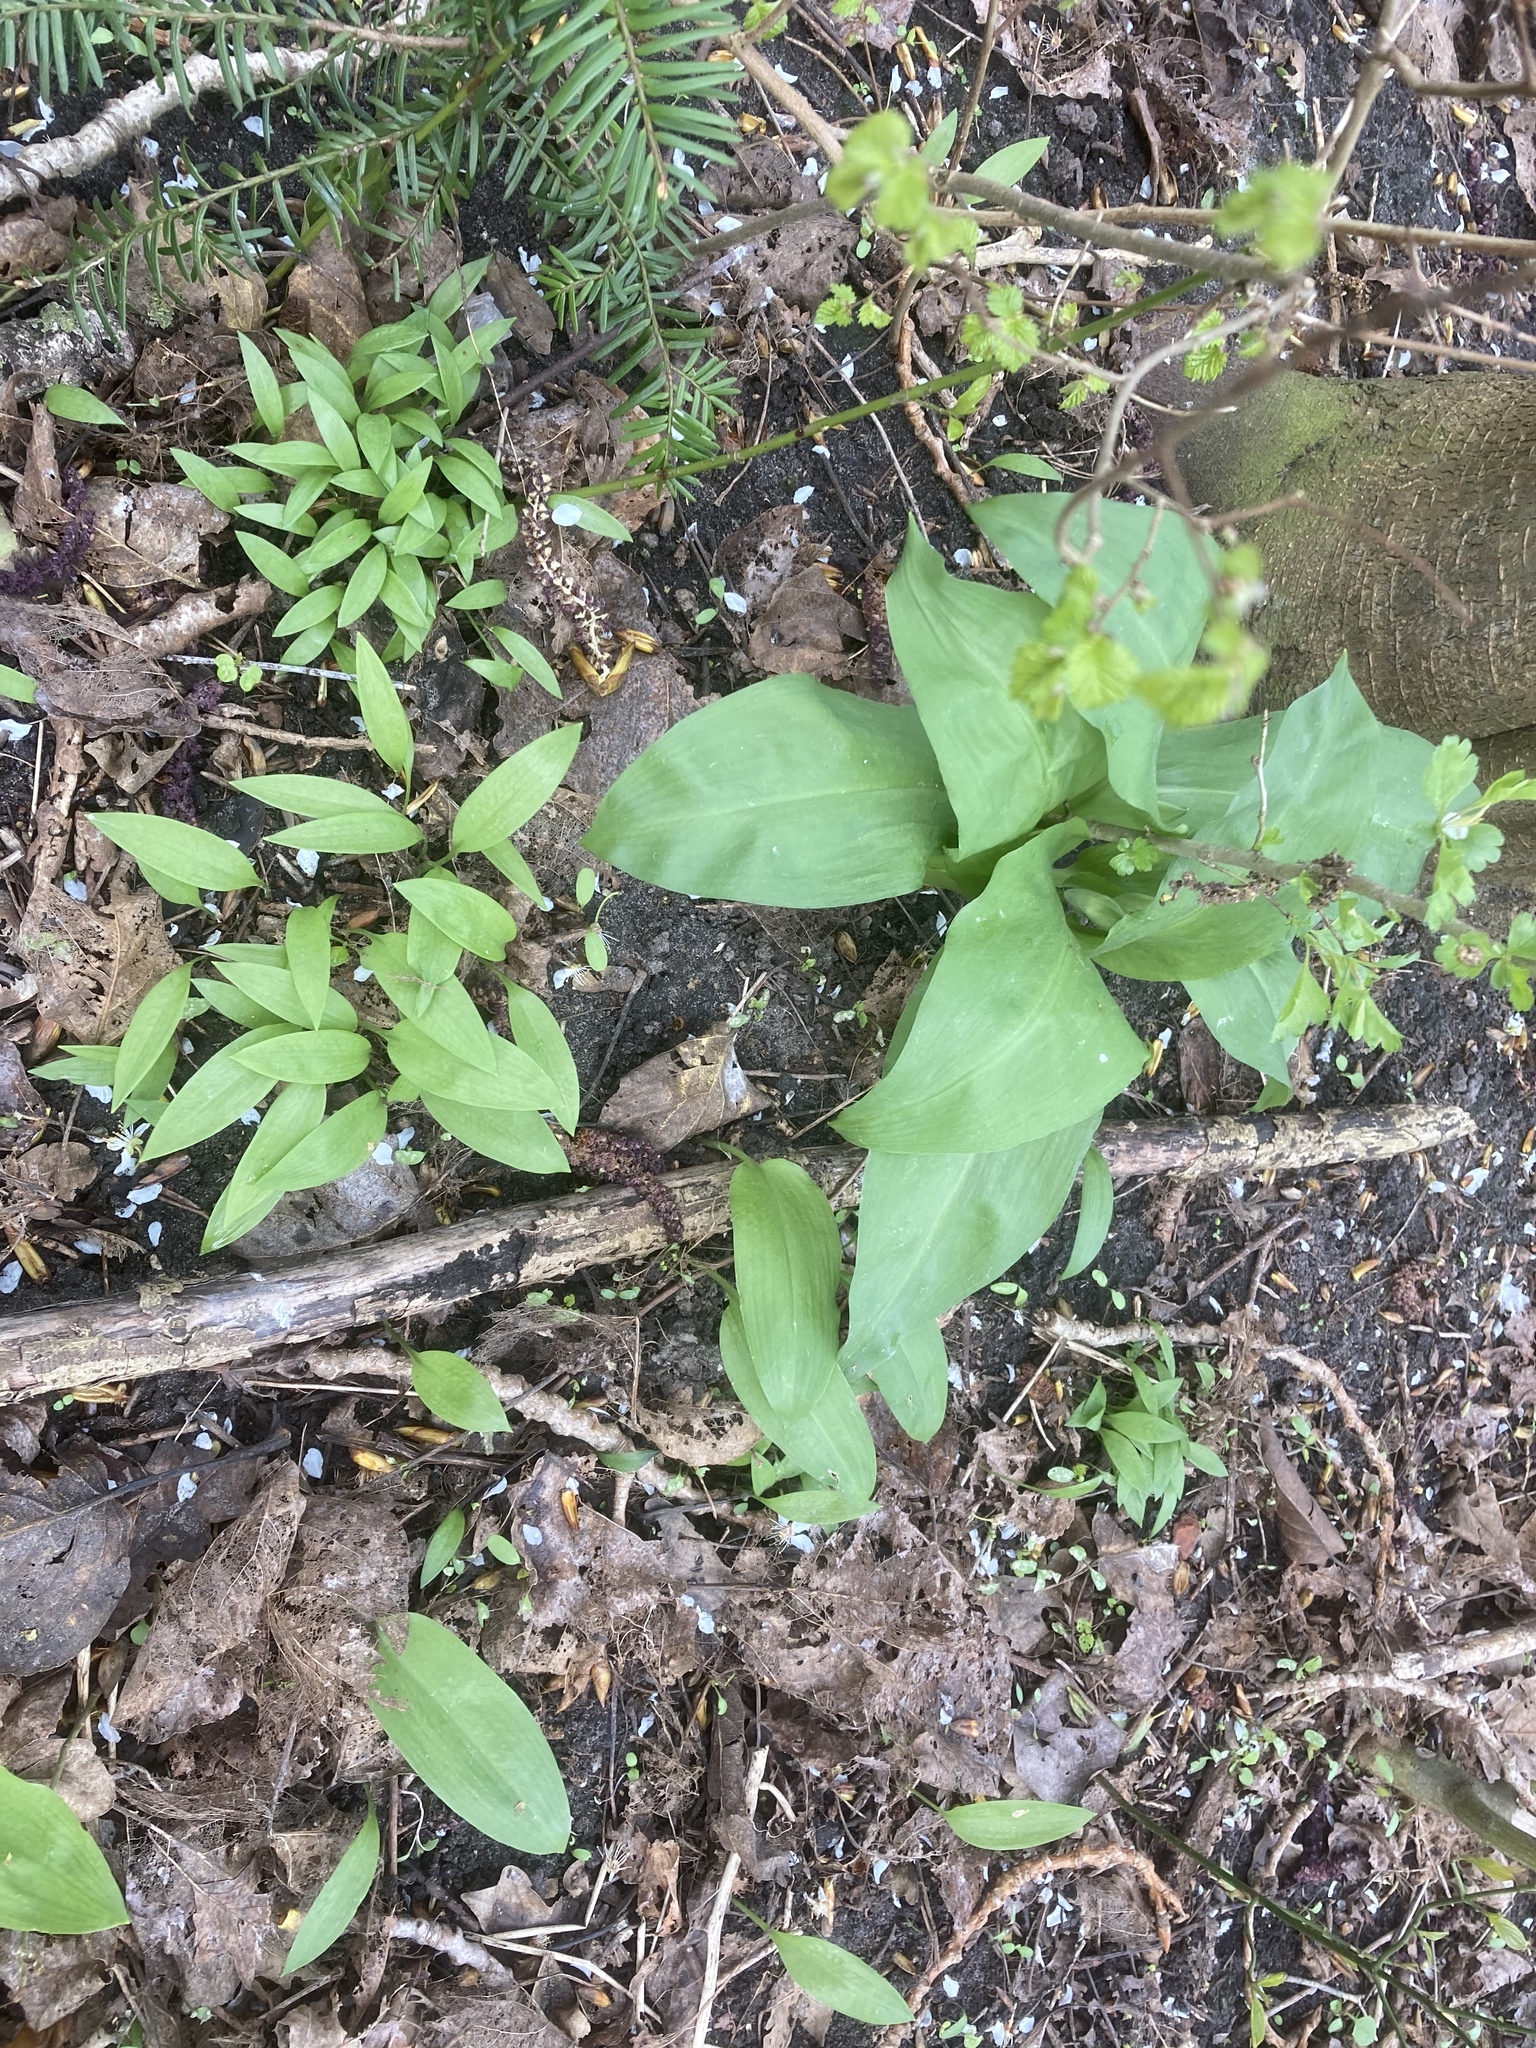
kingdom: Plantae
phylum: Tracheophyta
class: Liliopsida
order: Asparagales
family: Amaryllidaceae
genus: Allium
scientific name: Allium ursinum
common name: Ramsons
